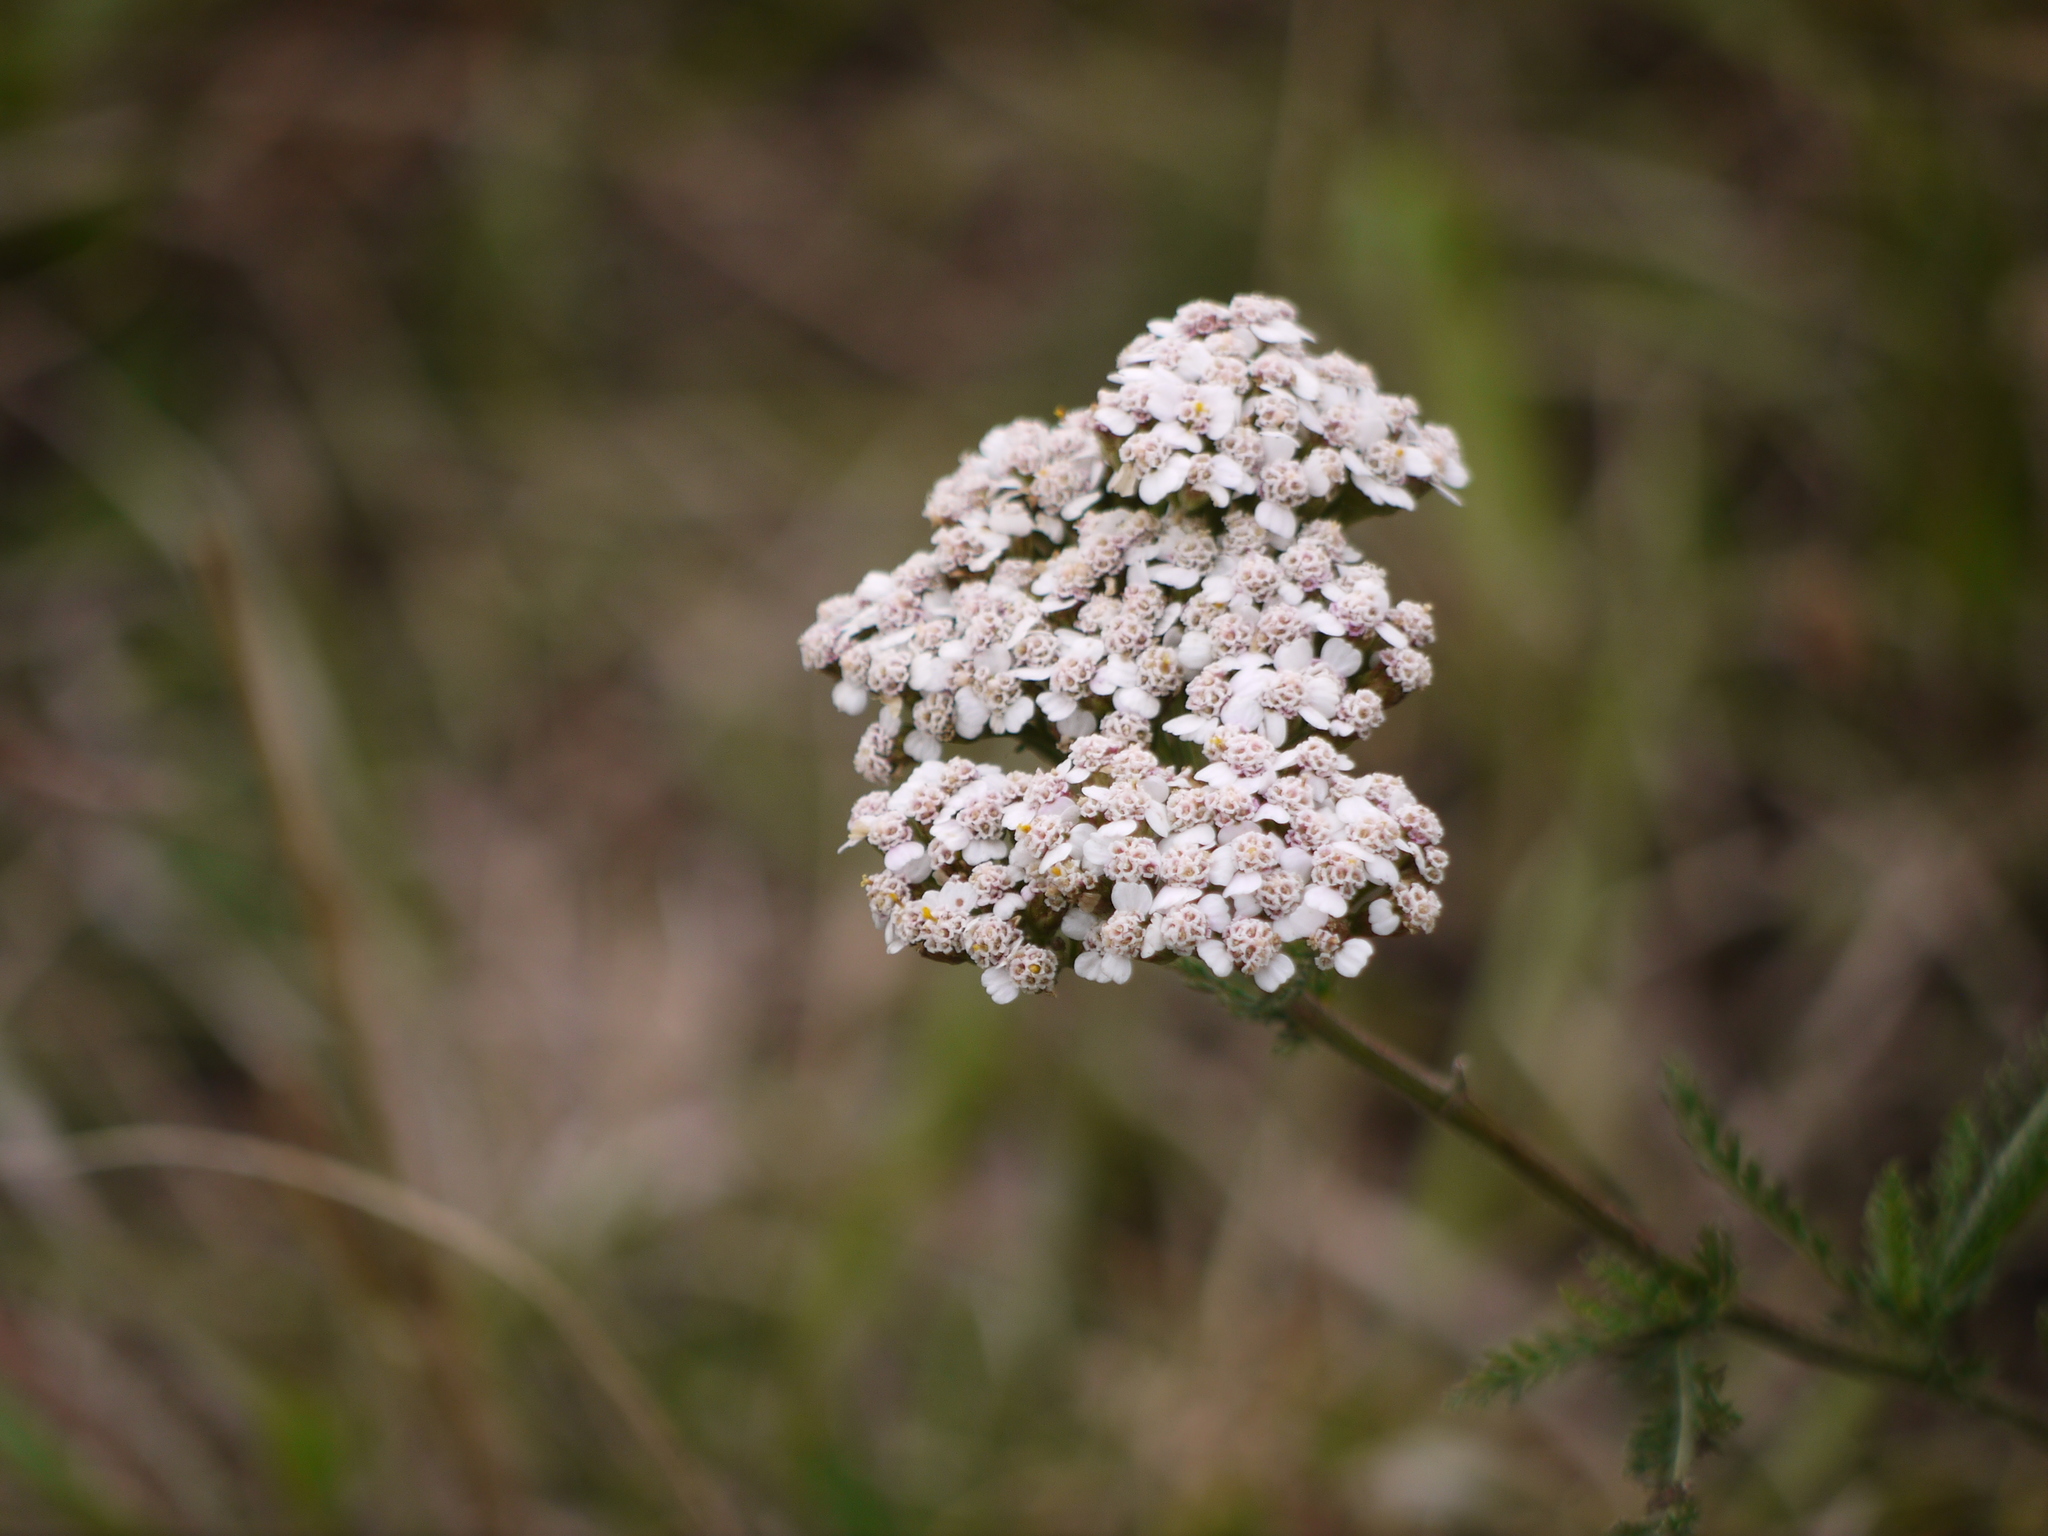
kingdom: Plantae
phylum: Tracheophyta
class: Magnoliopsida
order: Asterales
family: Asteraceae
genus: Achillea
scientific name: Achillea millefolium
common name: Yarrow
